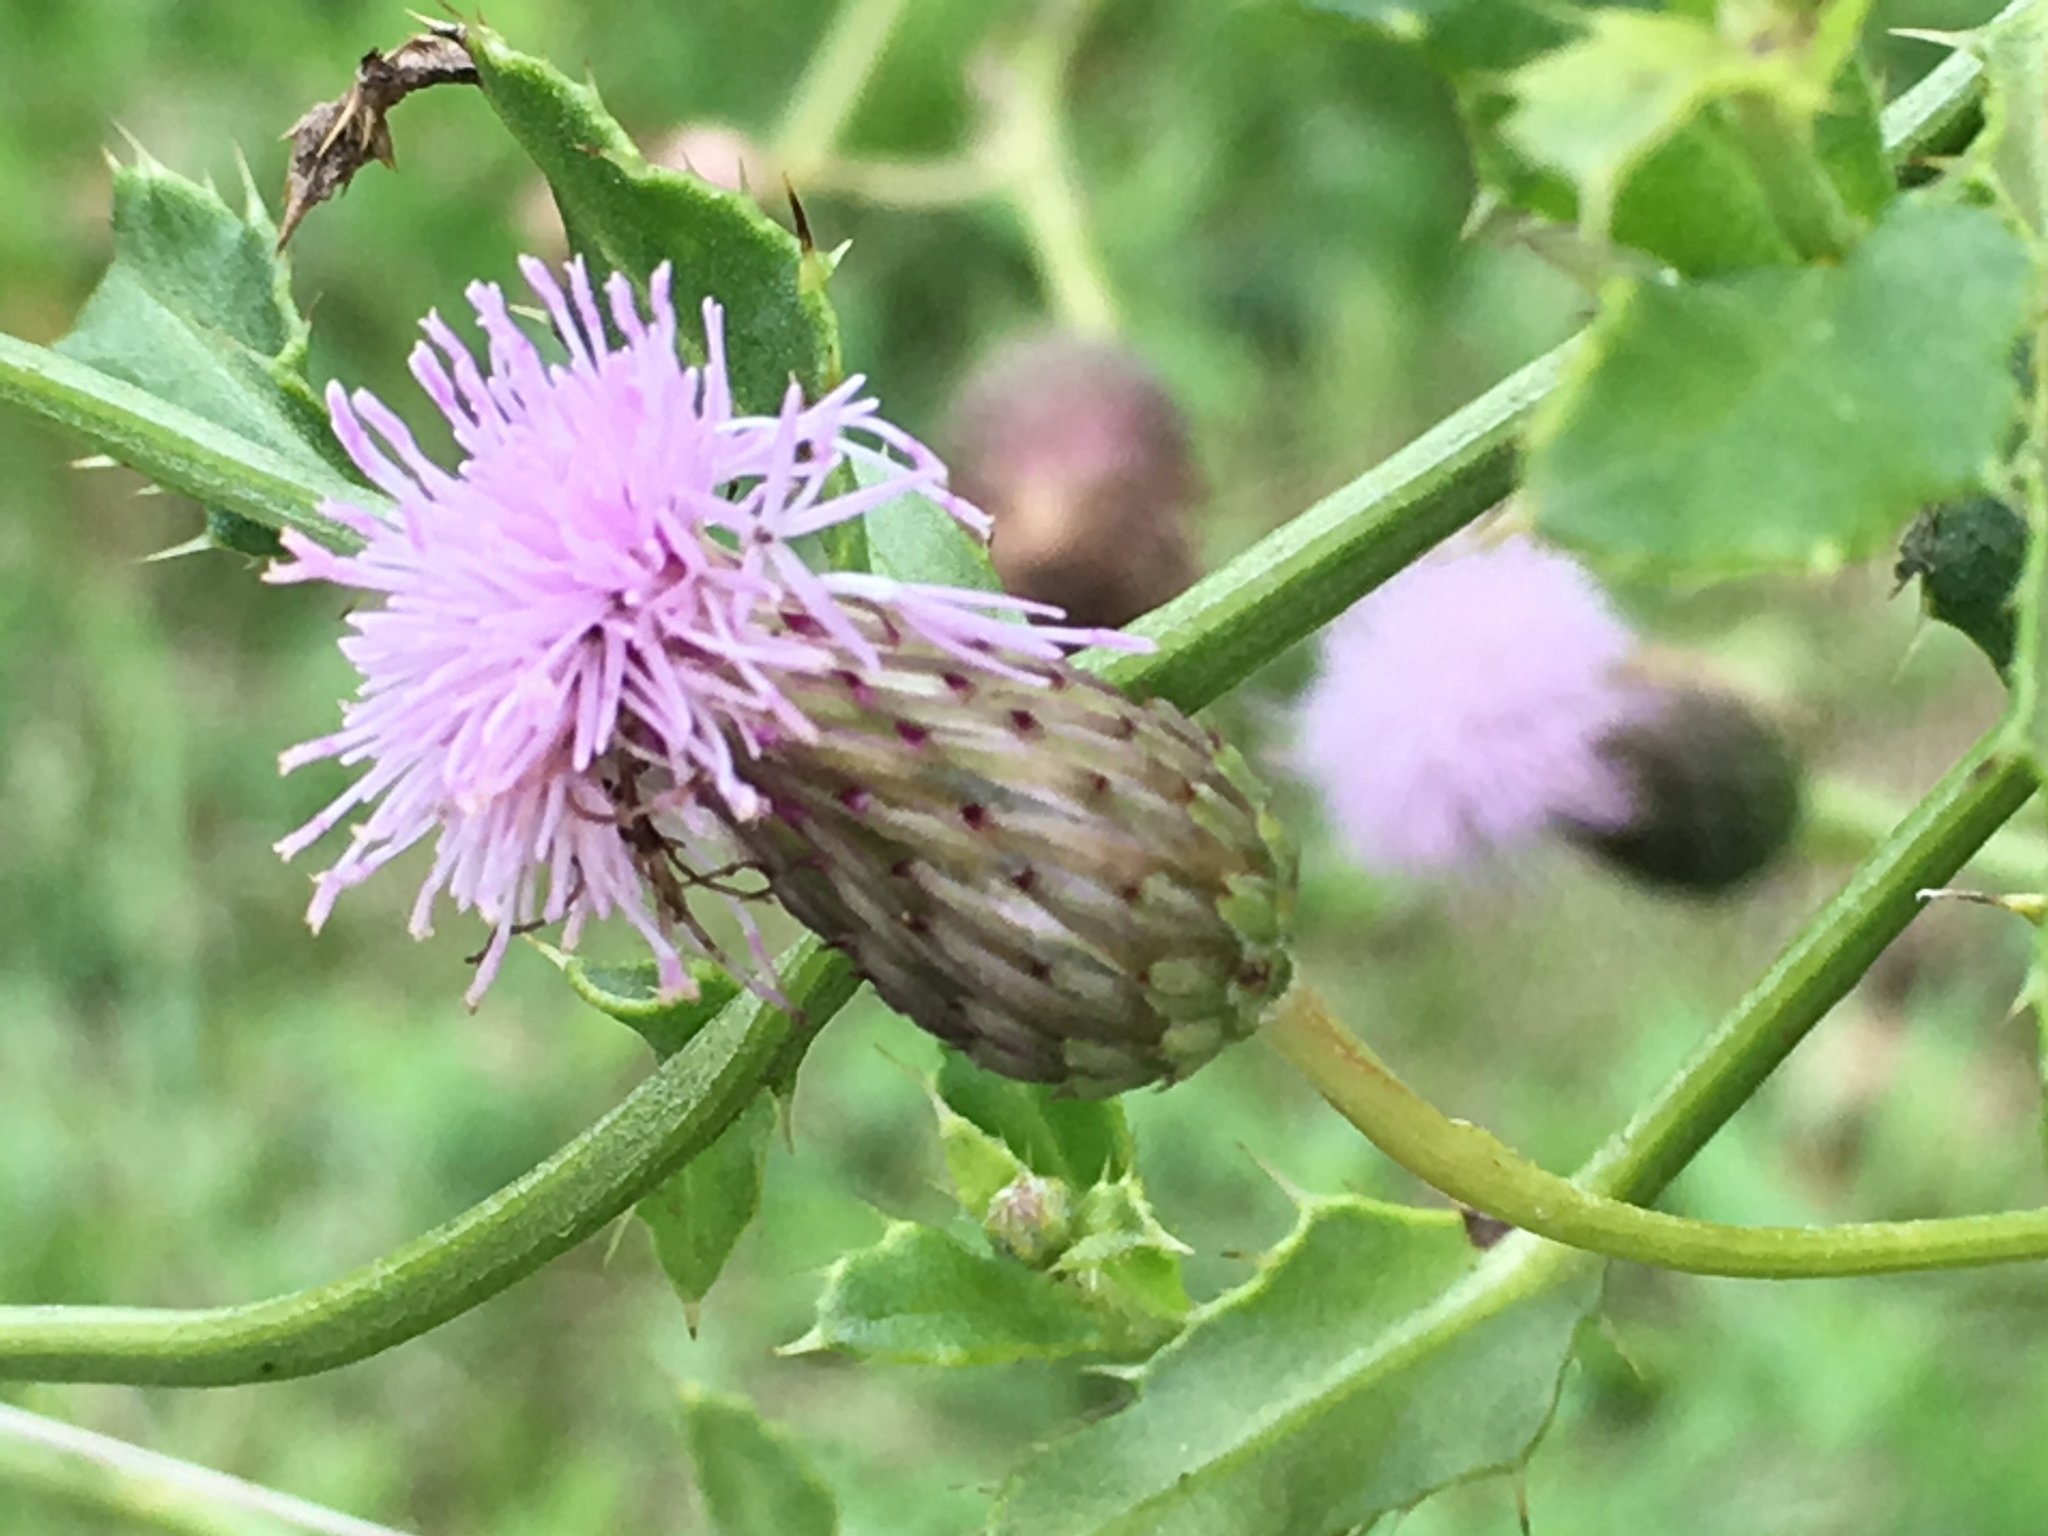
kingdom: Plantae
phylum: Tracheophyta
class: Magnoliopsida
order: Asterales
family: Asteraceae
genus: Cirsium
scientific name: Cirsium arvense
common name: Creeping thistle
